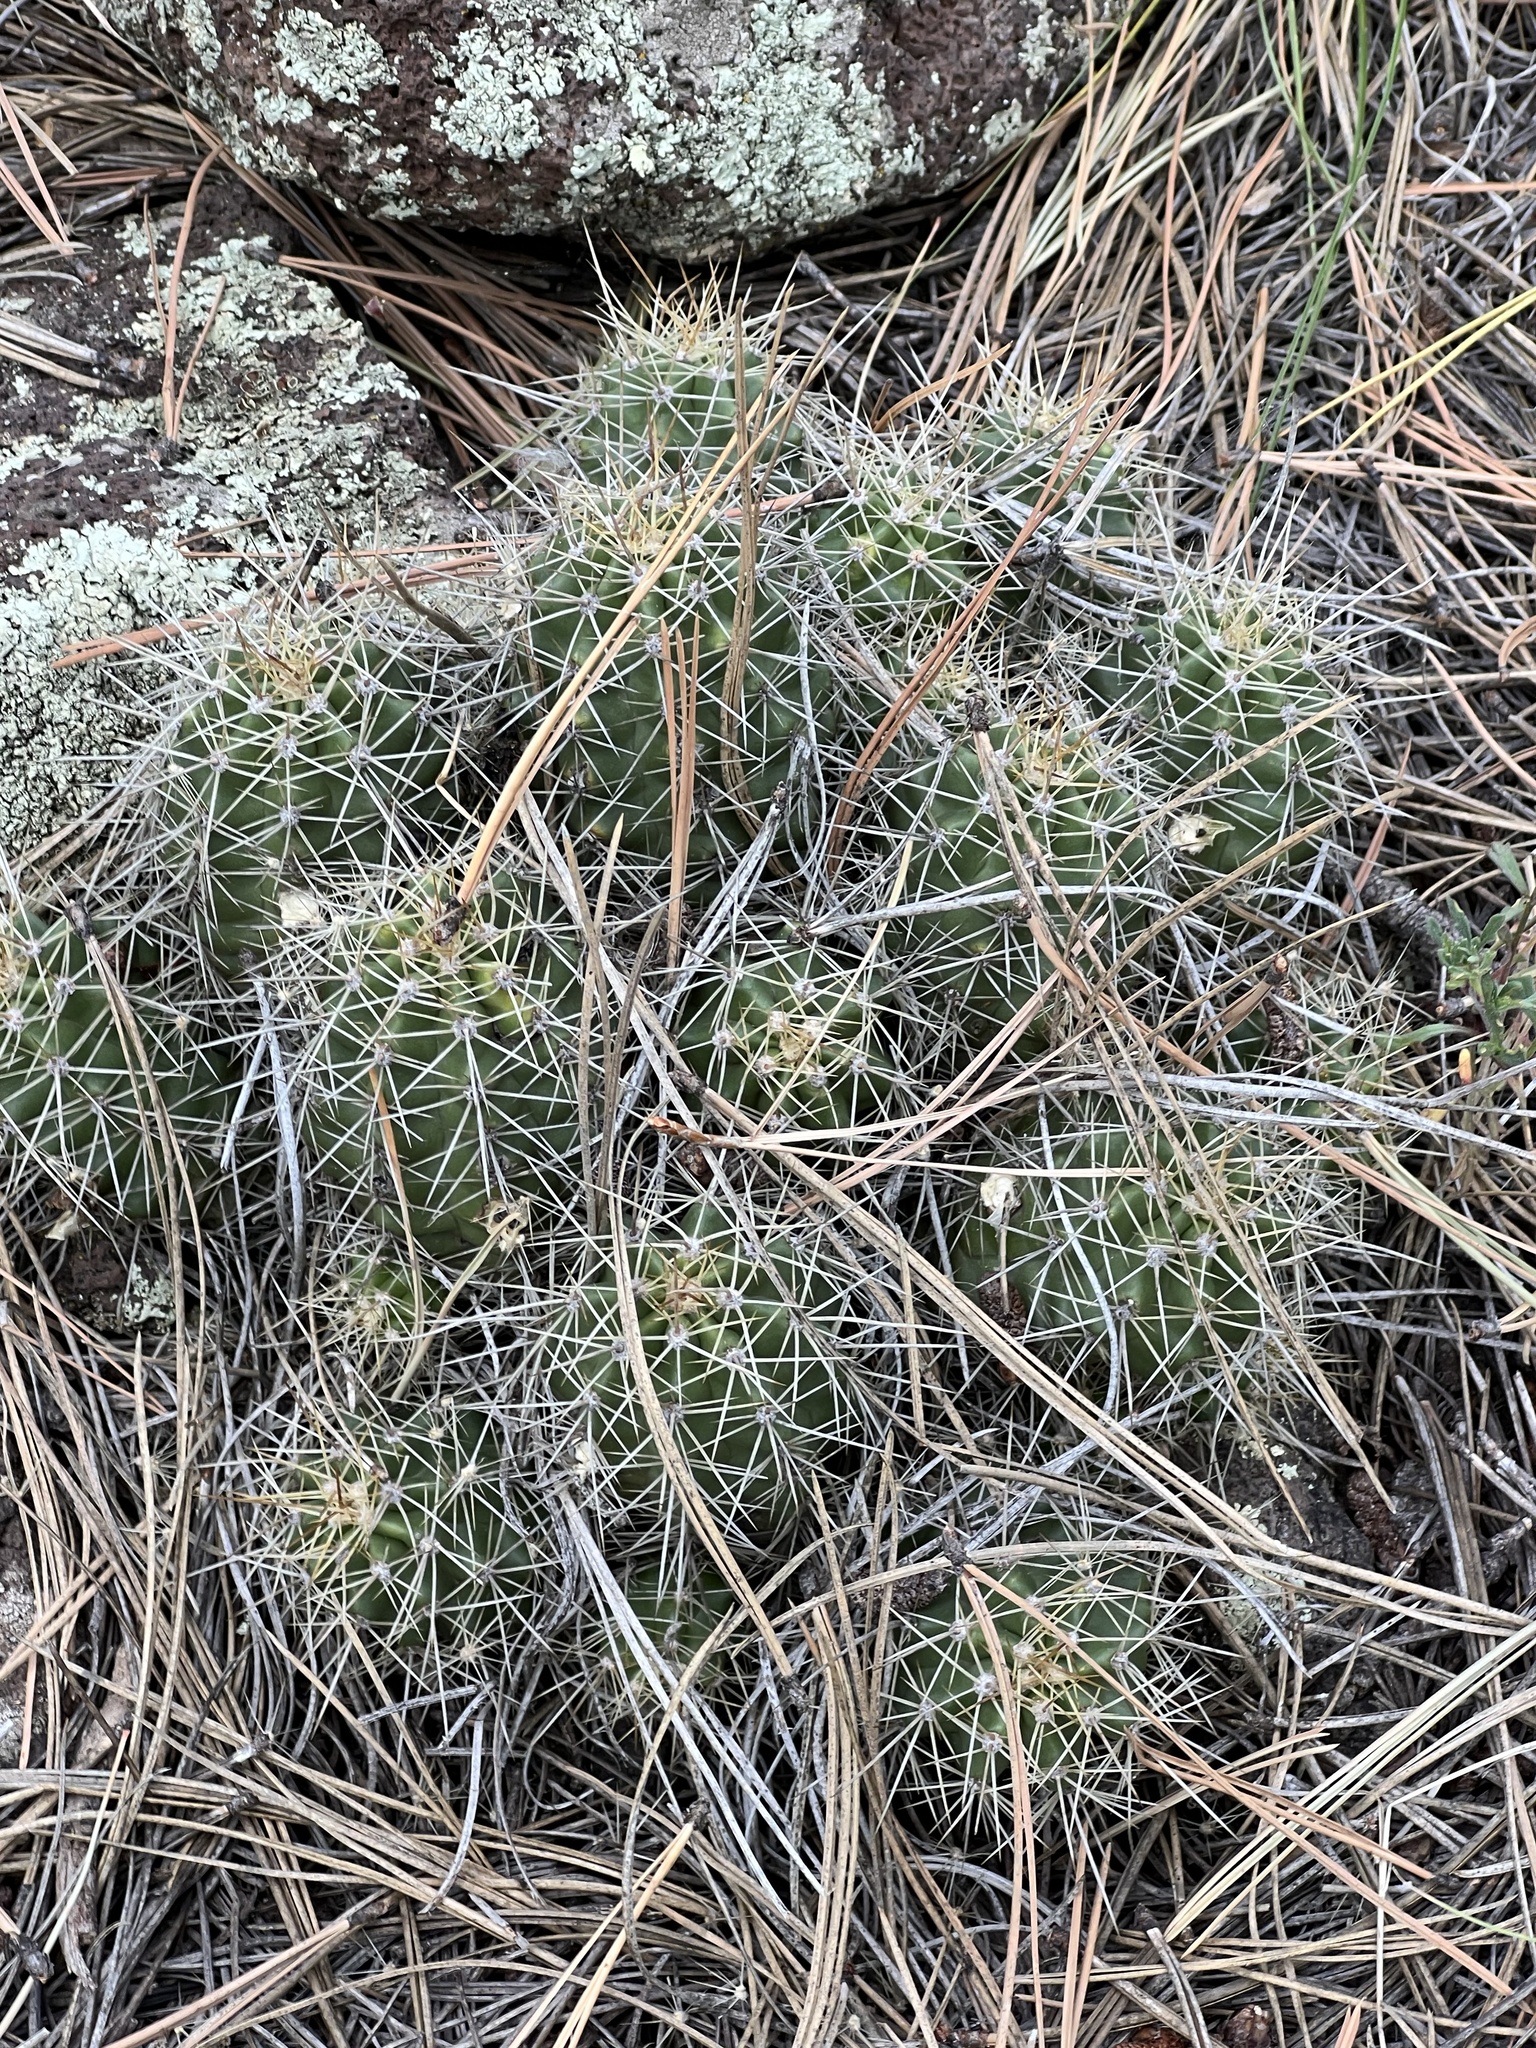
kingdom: Plantae
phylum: Tracheophyta
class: Magnoliopsida
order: Caryophyllales
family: Cactaceae
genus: Echinocereus
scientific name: Echinocereus bakeri
